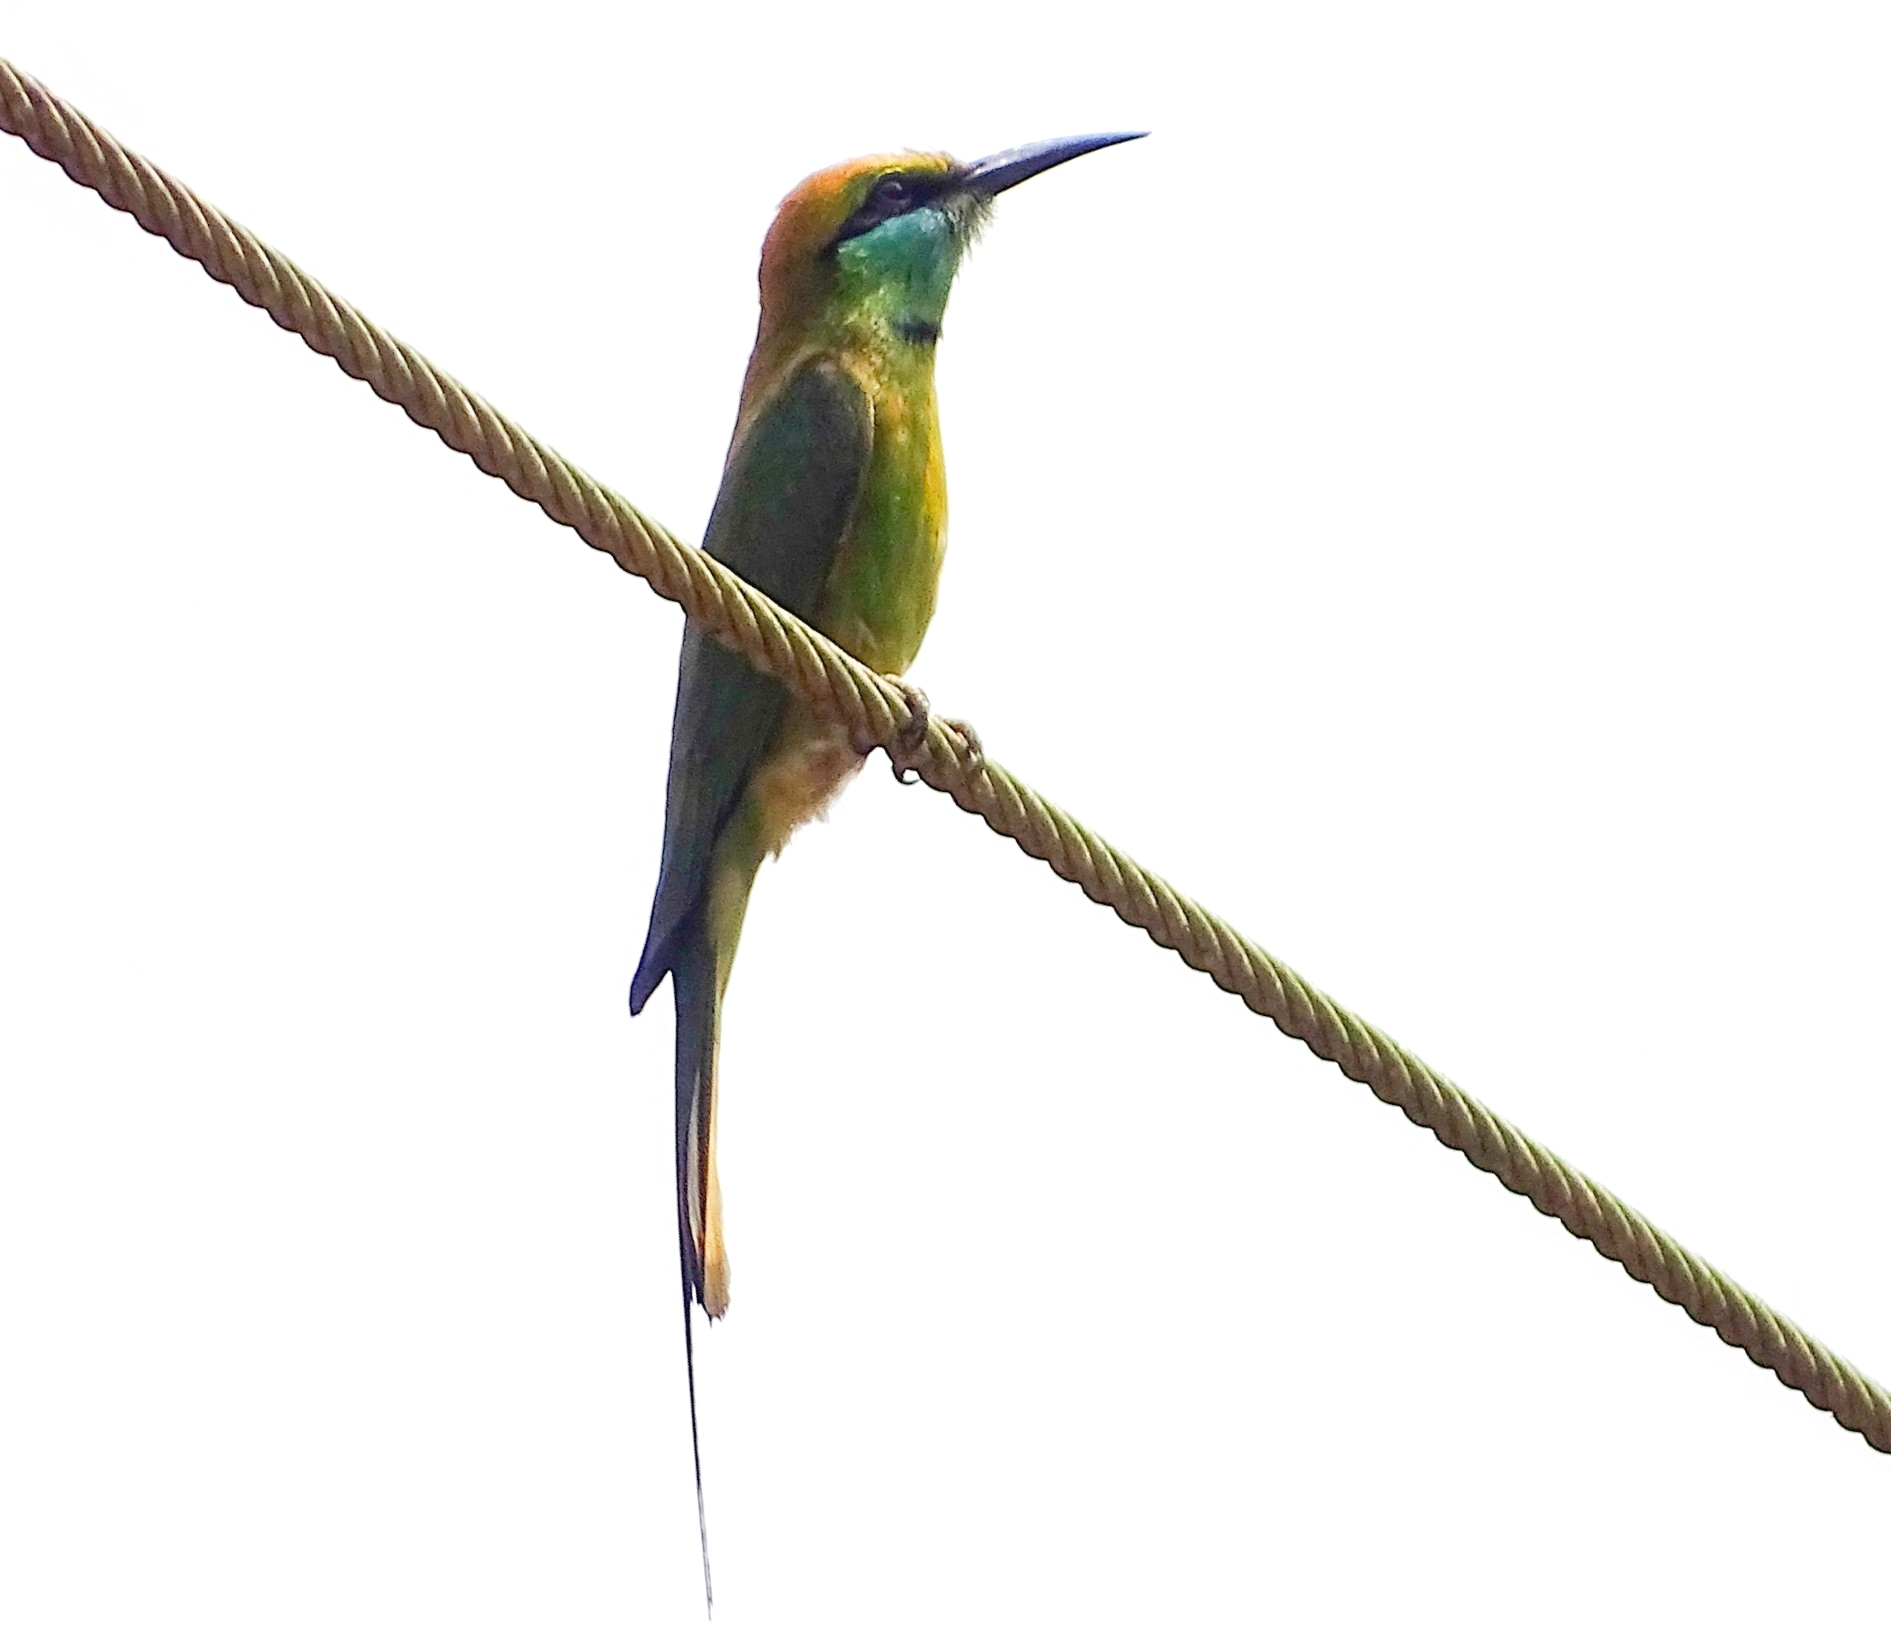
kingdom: Animalia
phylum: Chordata
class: Aves
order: Coraciiformes
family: Meropidae
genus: Merops
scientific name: Merops orientalis
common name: Green bee-eater
